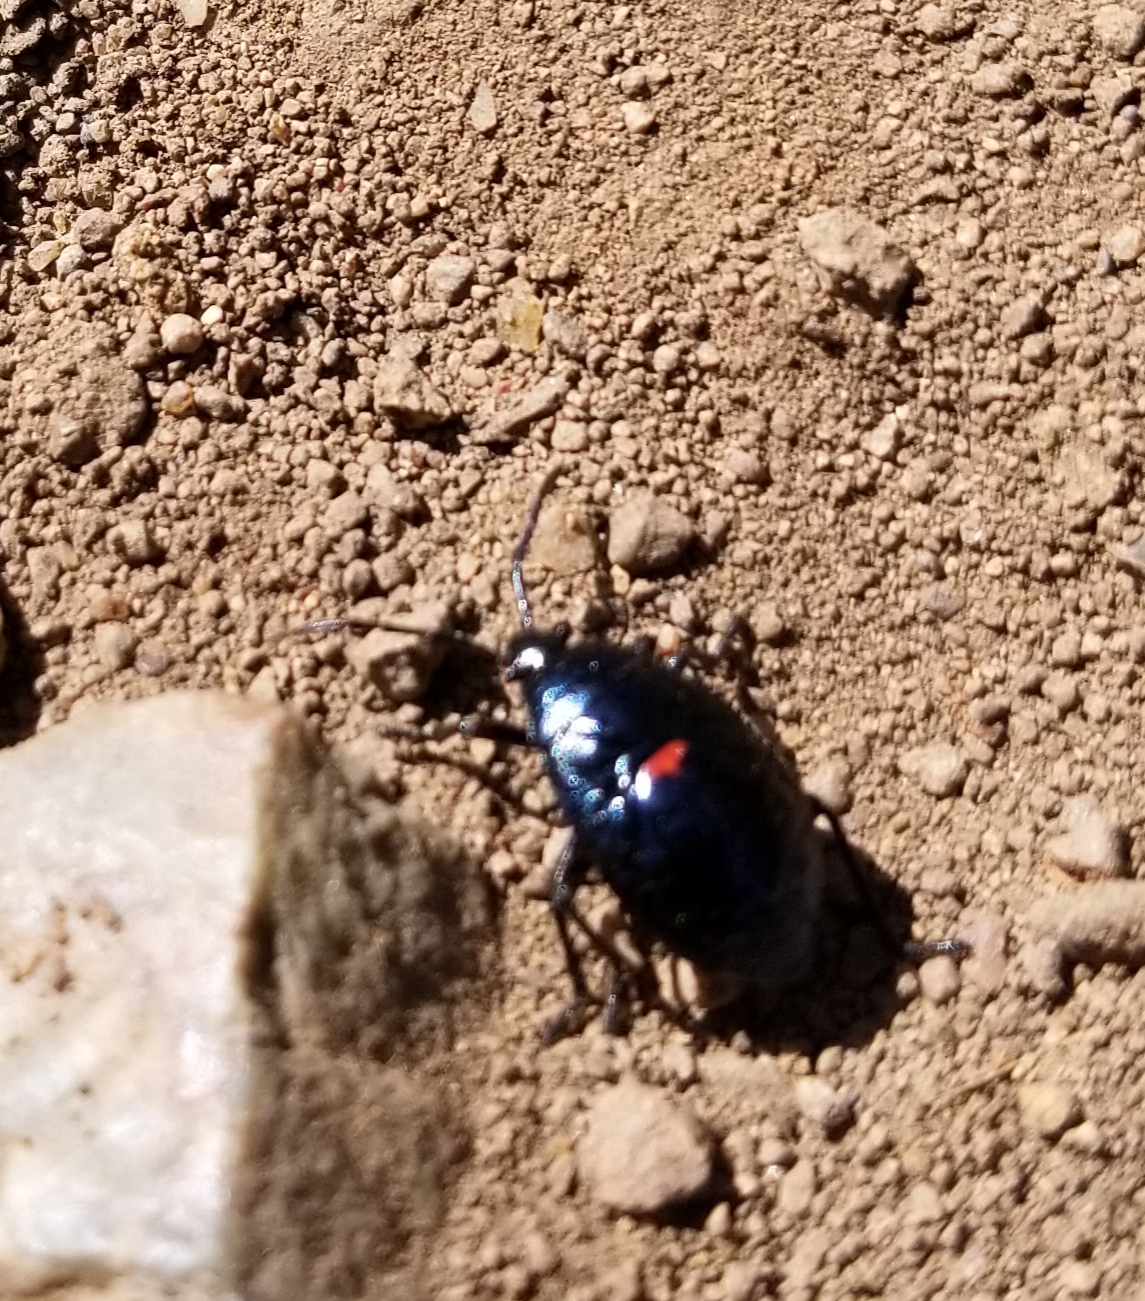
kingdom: Animalia
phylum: Arthropoda
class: Insecta
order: Hemiptera
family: Largidae
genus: Largus
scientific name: Largus californicus
